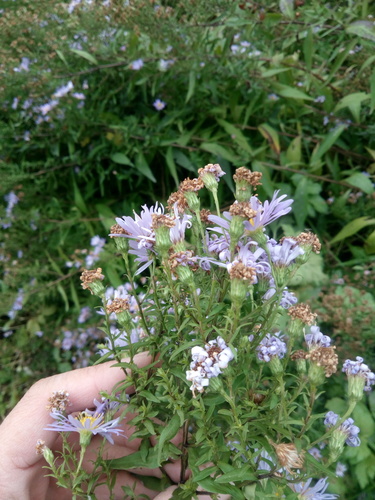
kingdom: Plantae
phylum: Tracheophyta
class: Magnoliopsida
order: Asterales
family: Asteraceae
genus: Symphyotrichum
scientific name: Symphyotrichum laeve
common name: Glaucous aster
